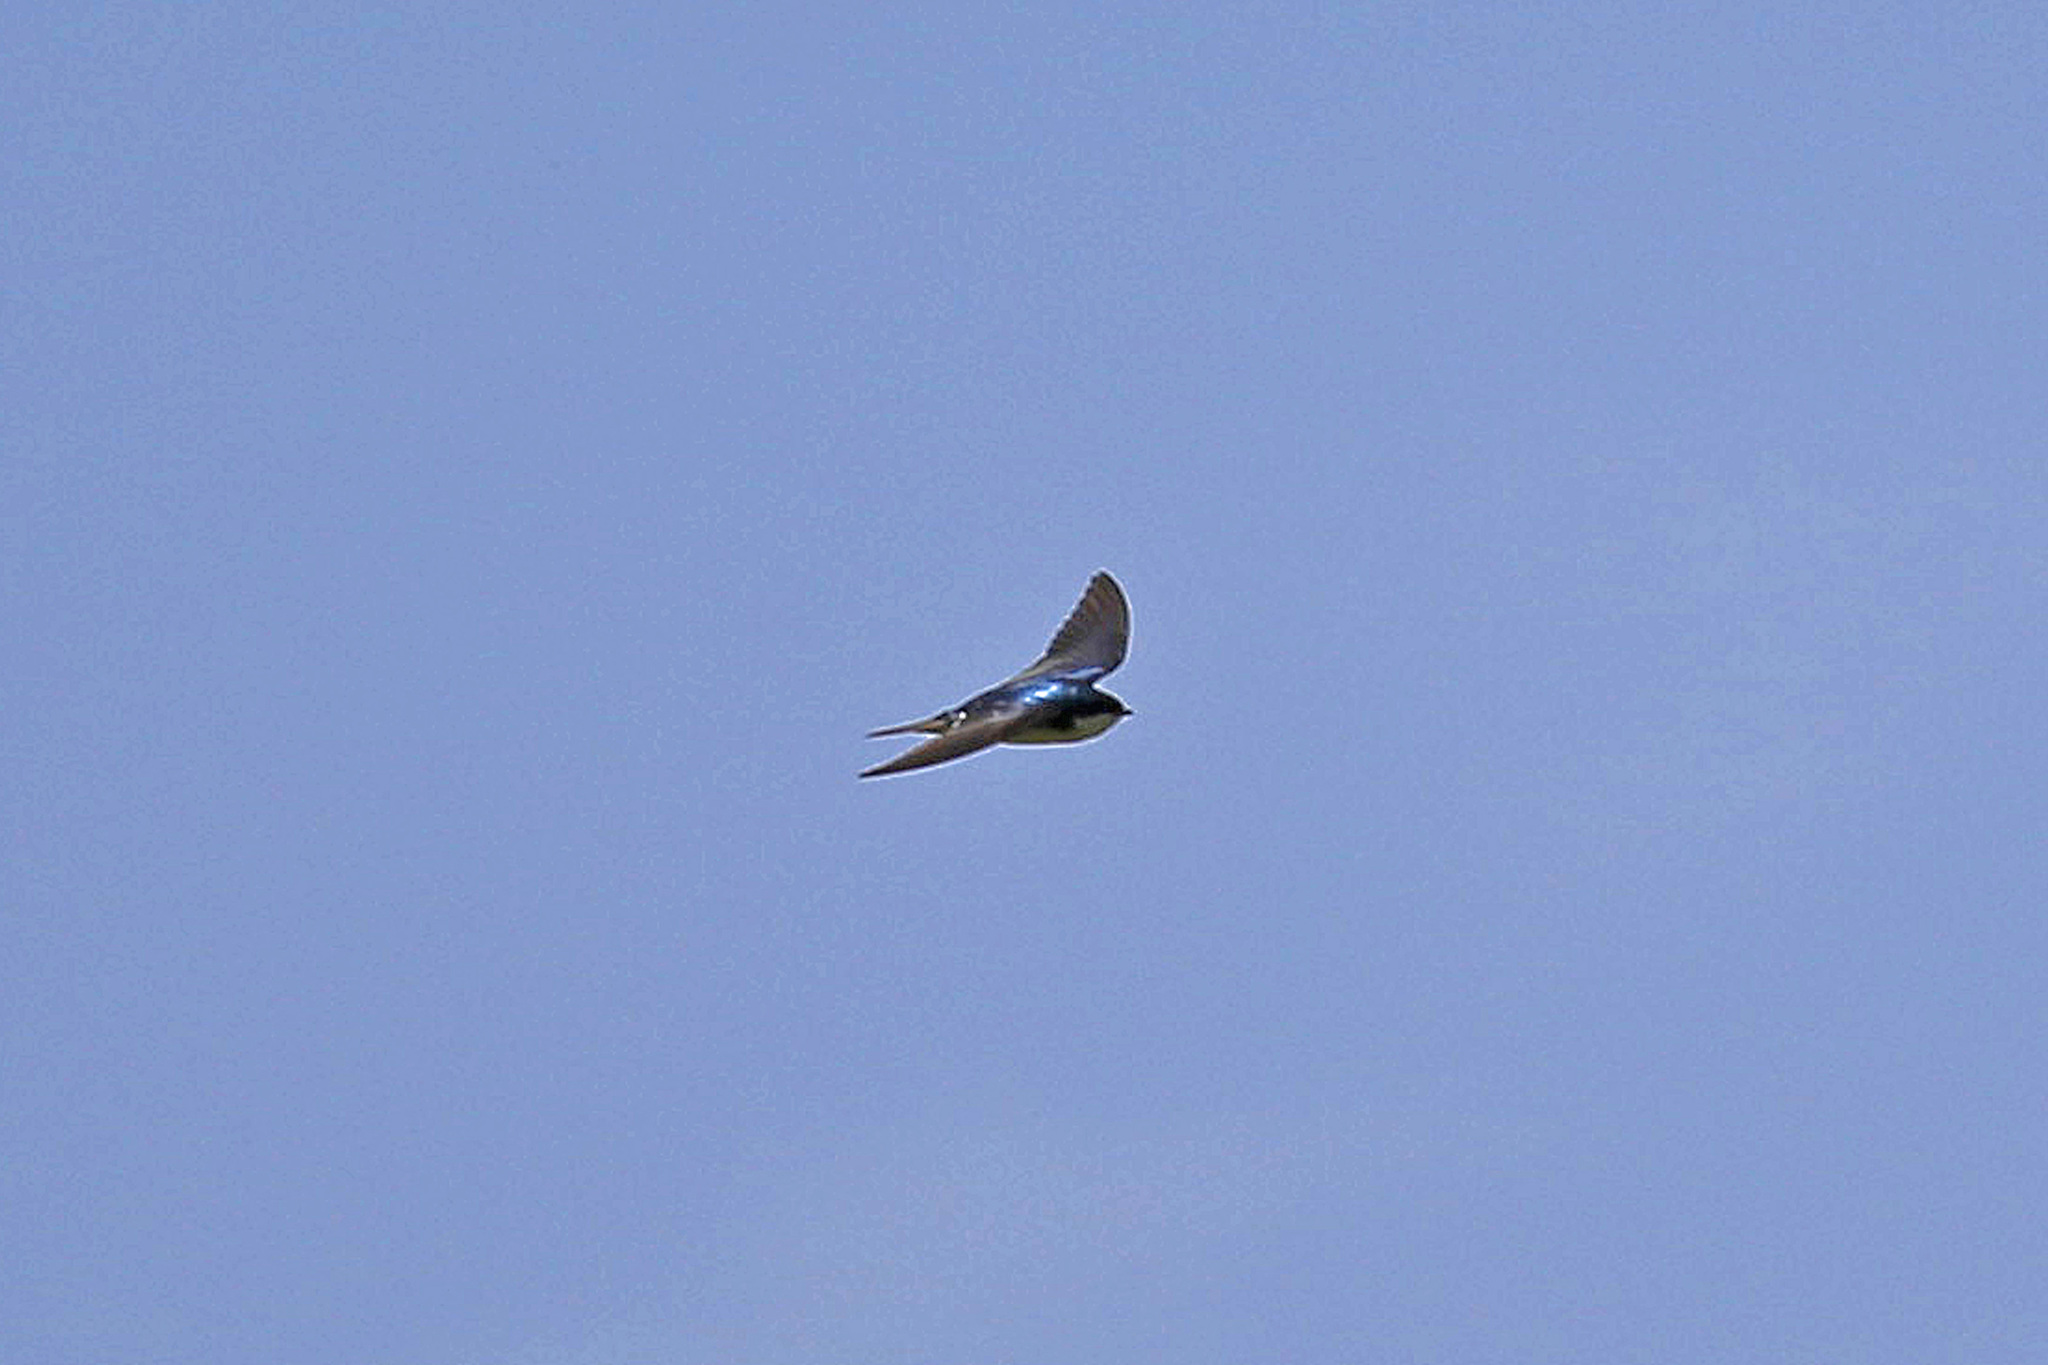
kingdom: Animalia
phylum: Chordata
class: Aves
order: Passeriformes
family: Hirundinidae
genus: Tachycineta
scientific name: Tachycineta bicolor
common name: Tree swallow
